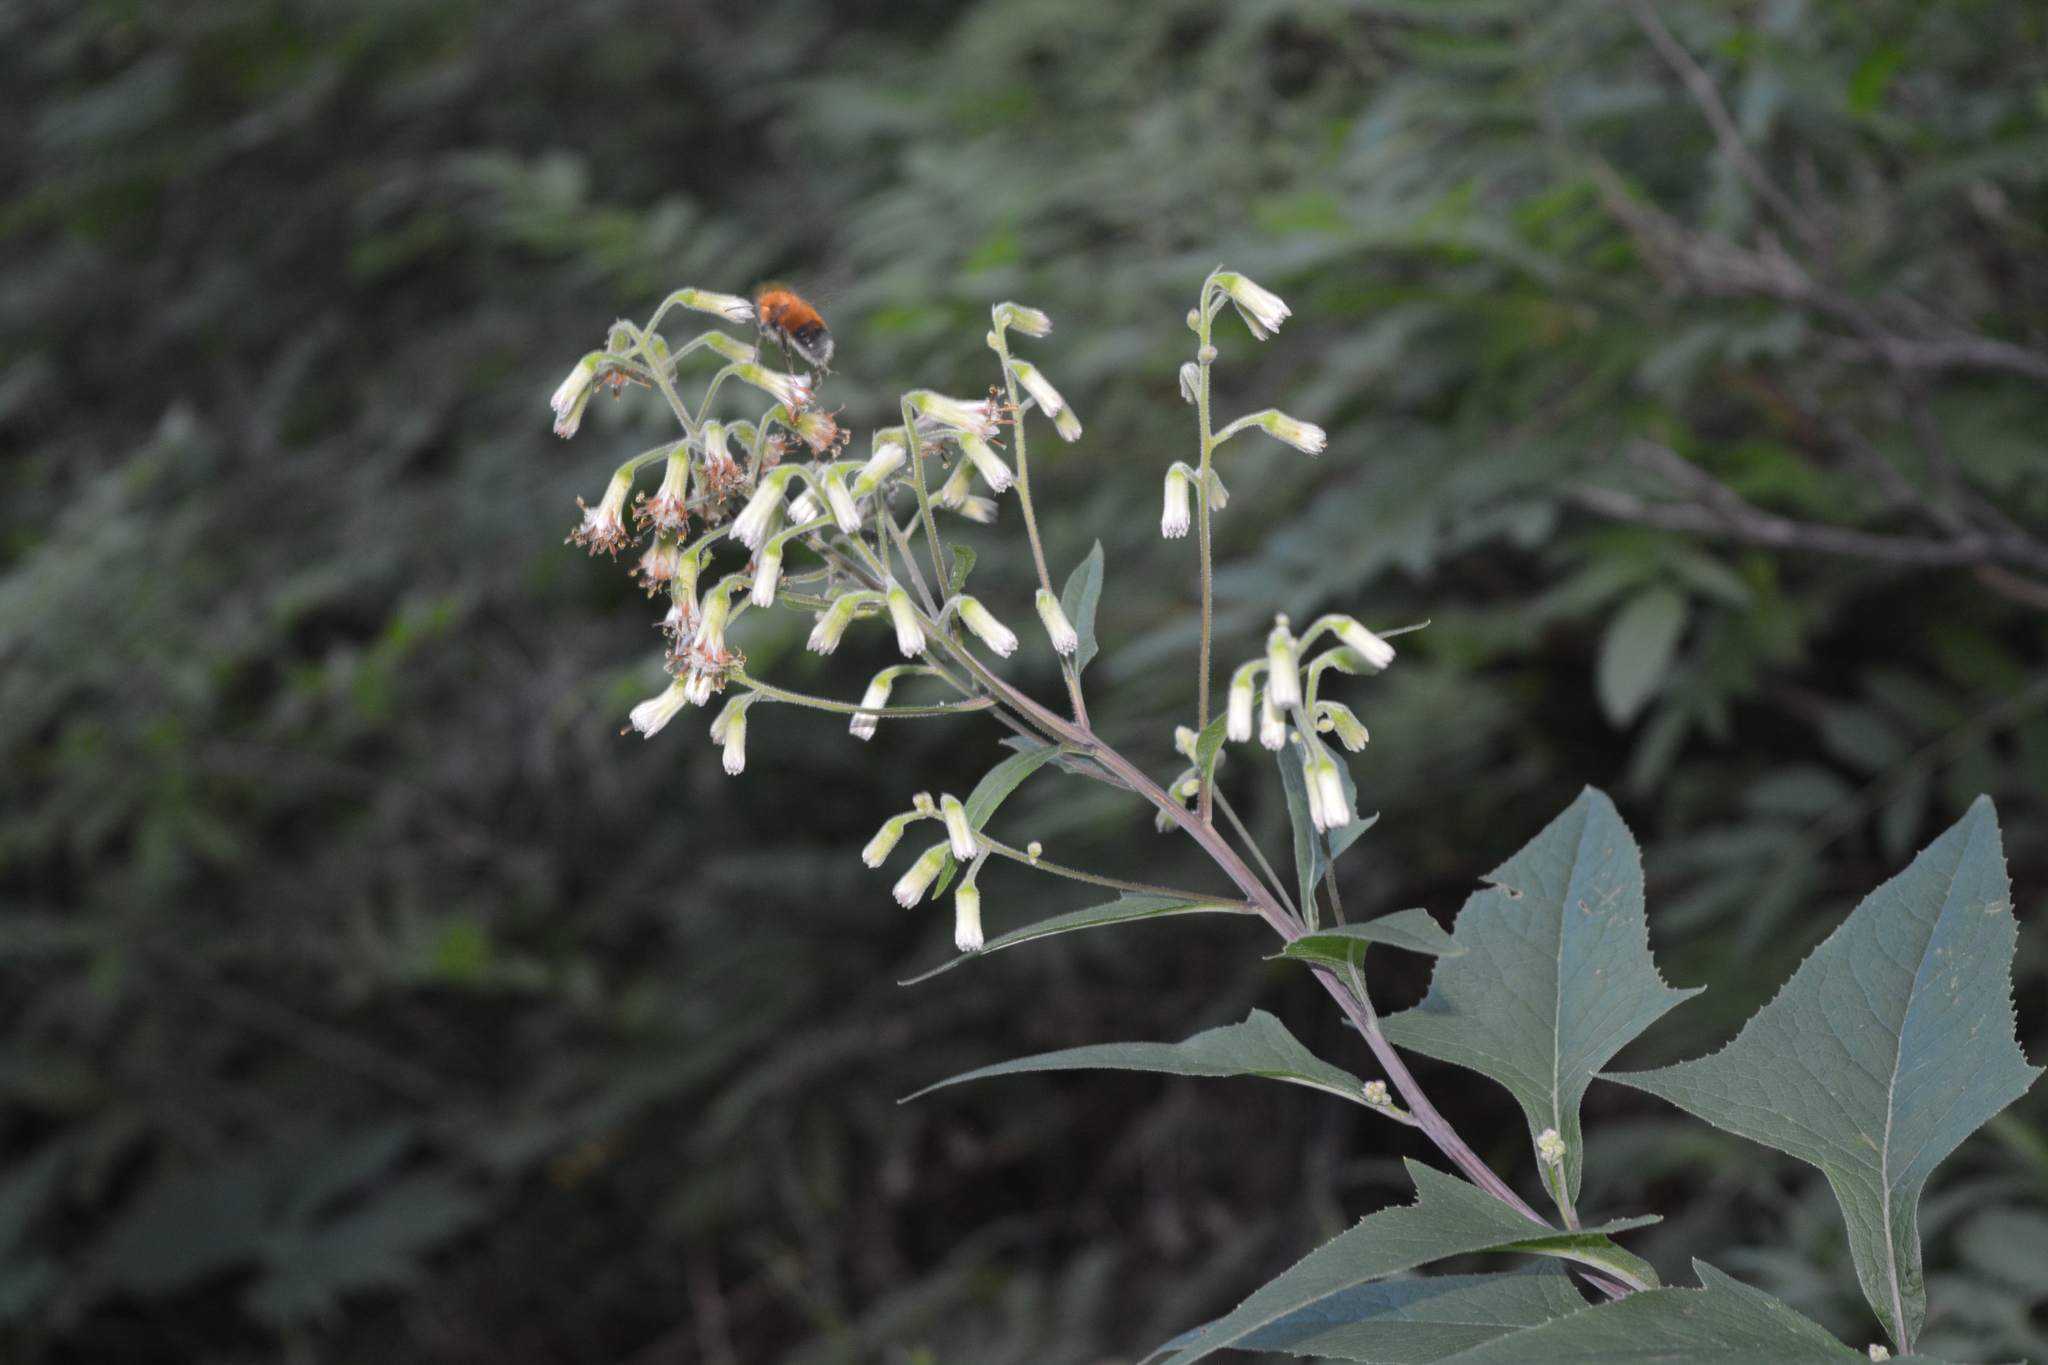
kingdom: Plantae
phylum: Tracheophyta
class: Magnoliopsida
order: Asterales
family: Asteraceae
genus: Parasenecio
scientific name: Parasenecio hastatus
